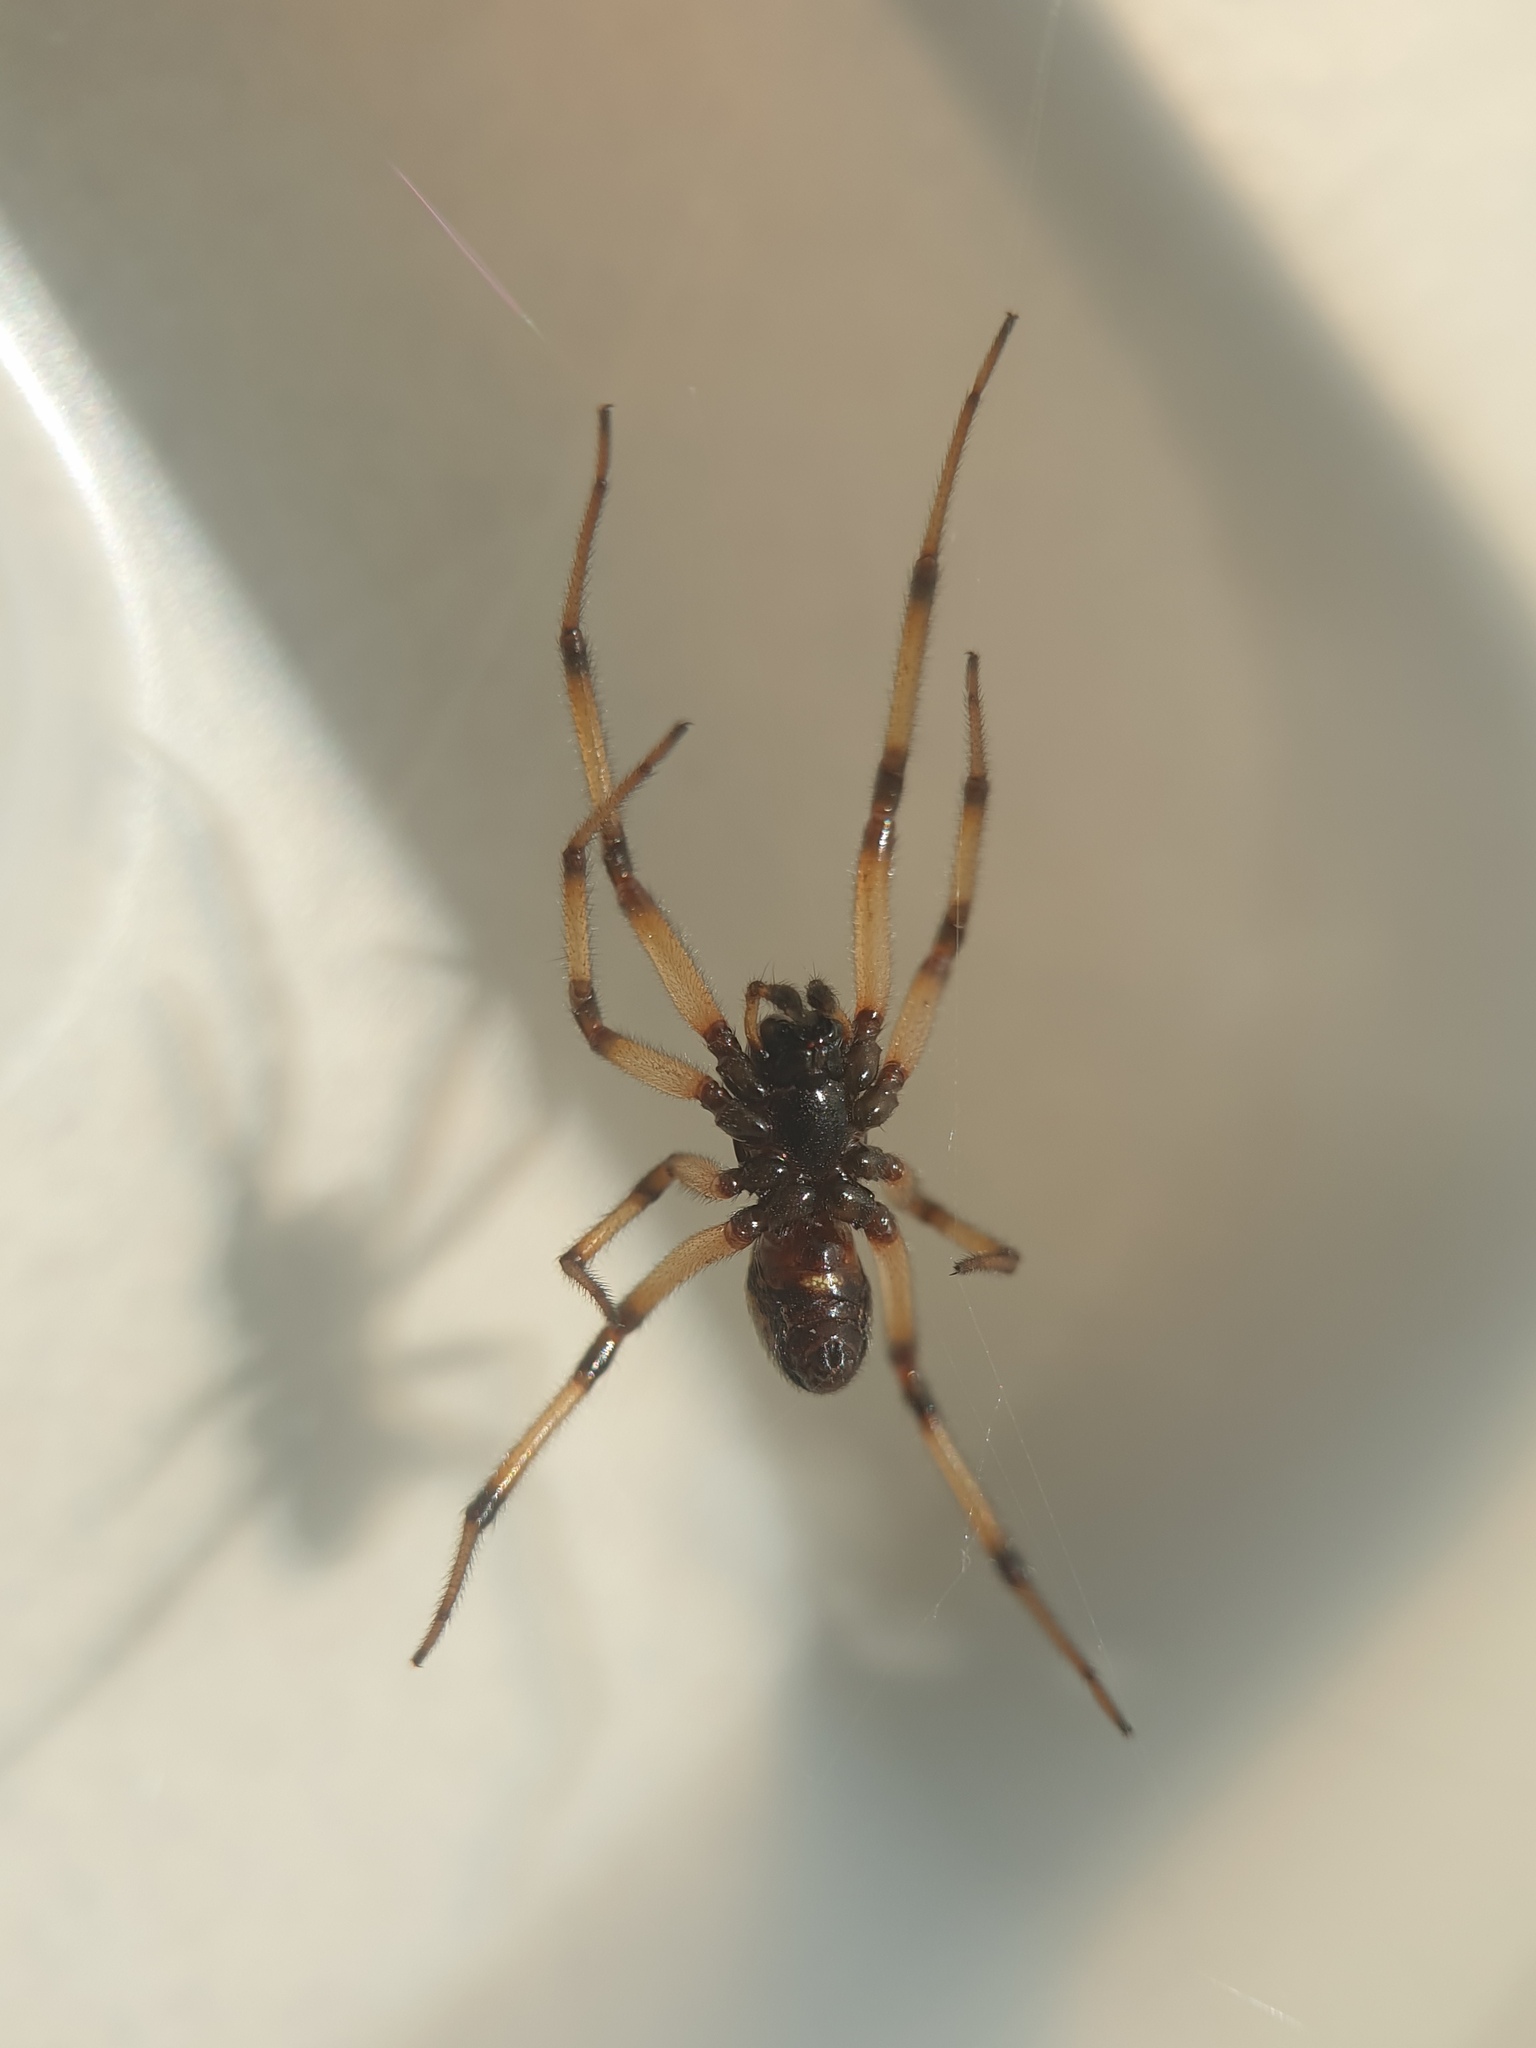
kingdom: Animalia
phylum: Arthropoda
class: Arachnida
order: Araneae
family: Theridiidae
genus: Steatoda
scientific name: Steatoda paykulliana
